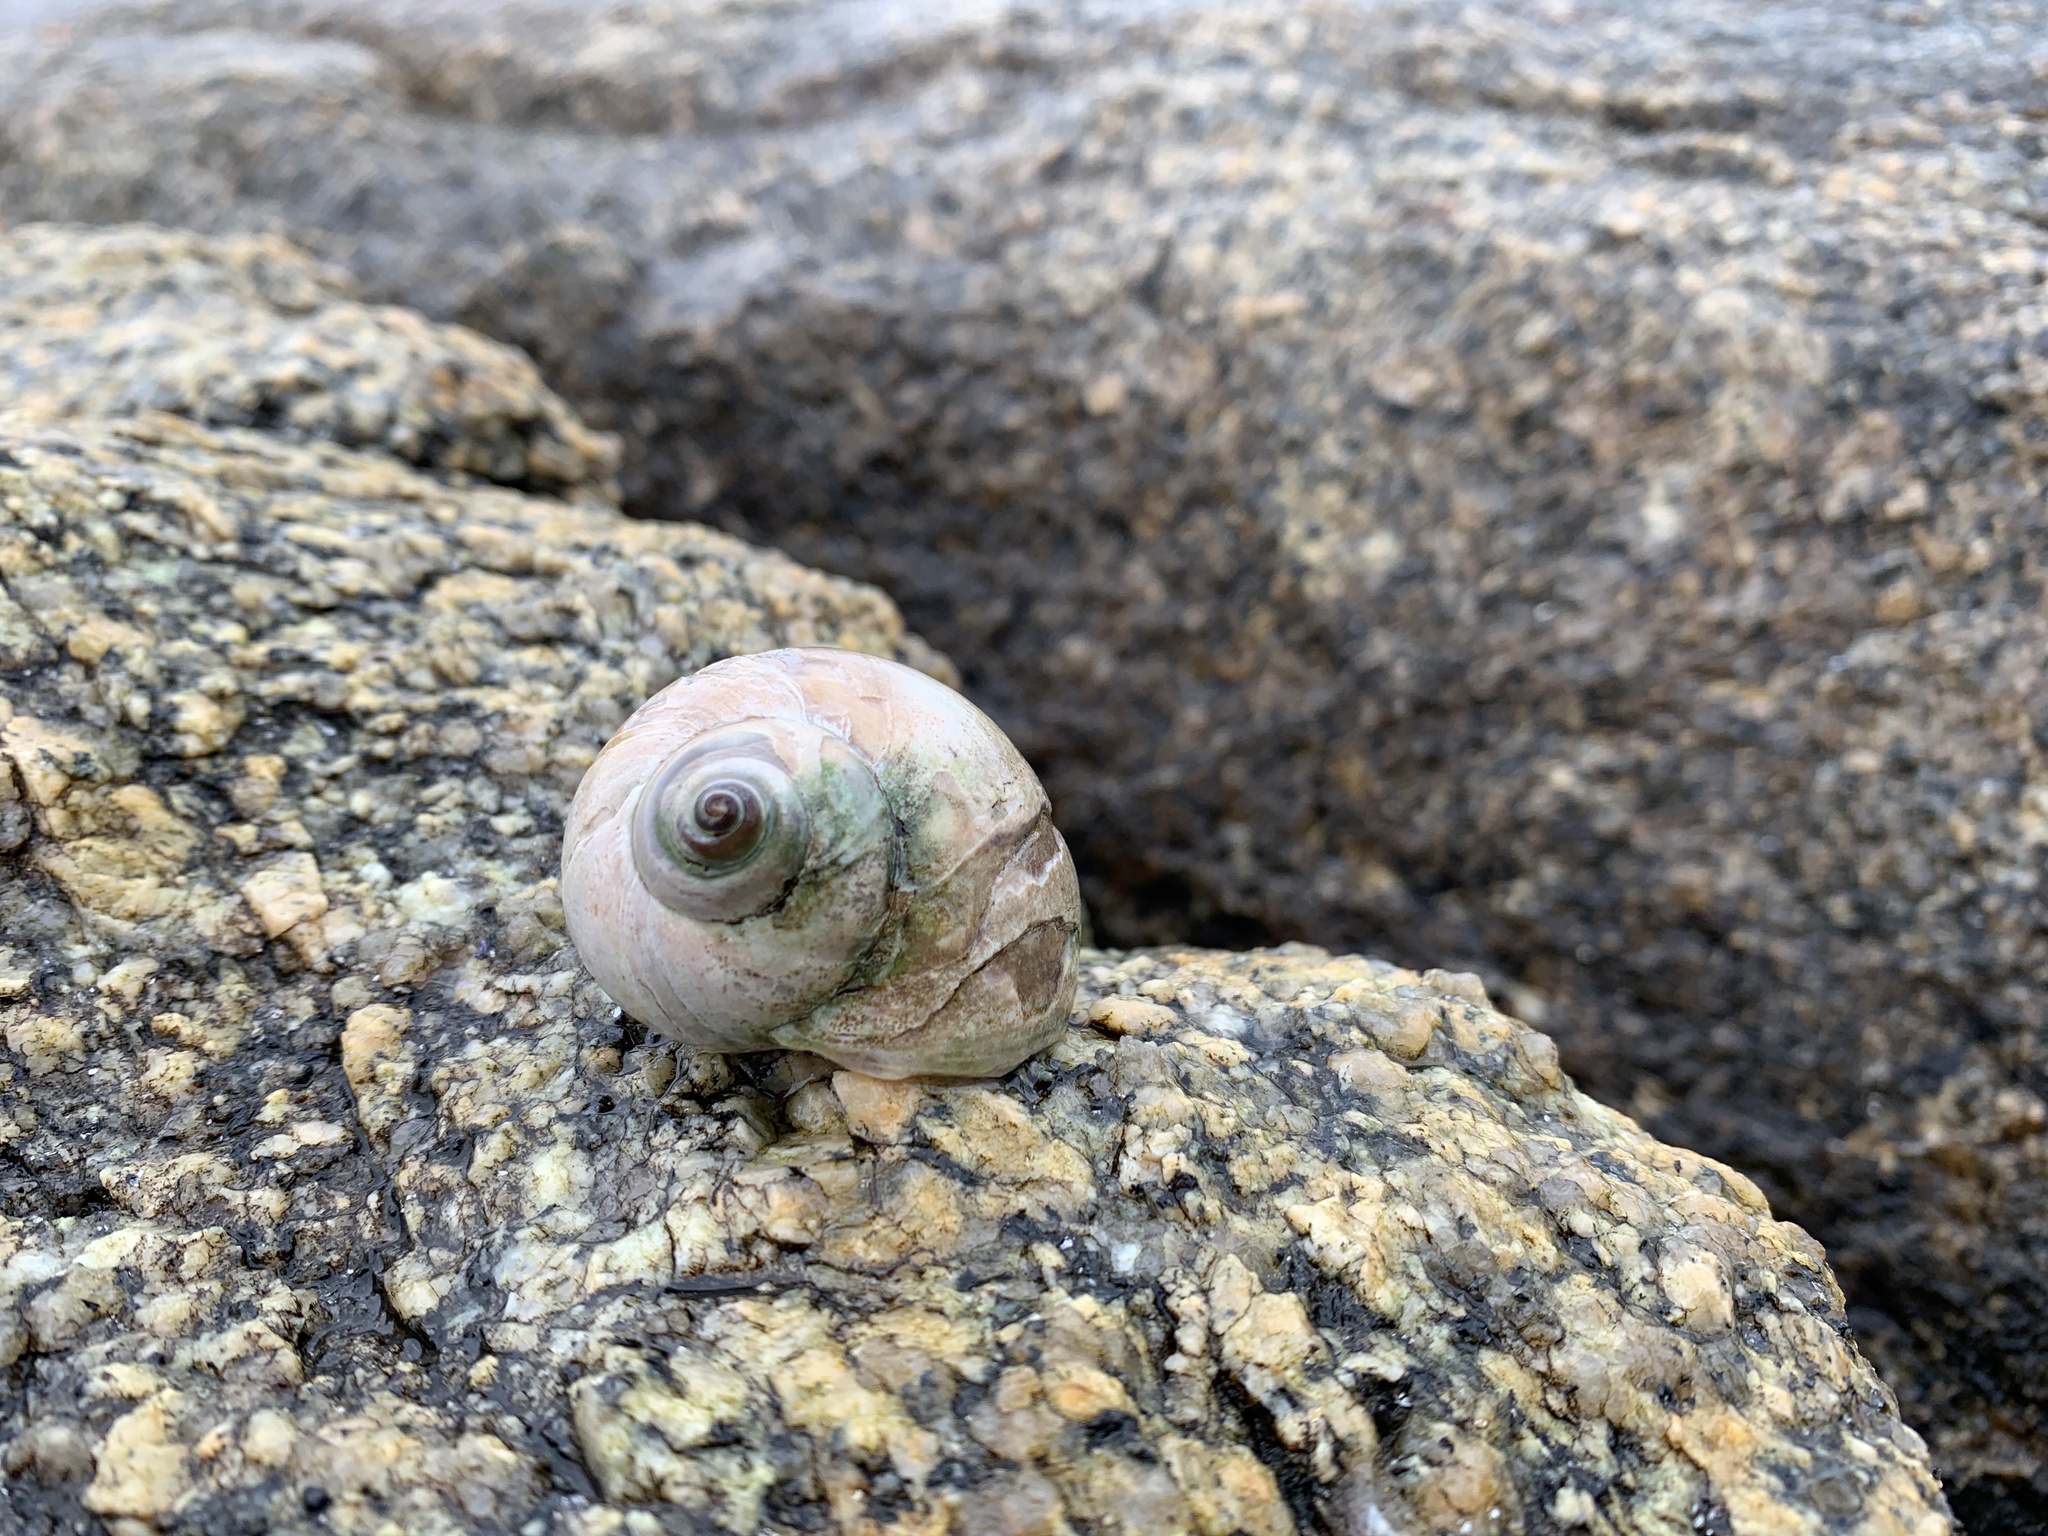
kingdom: Animalia
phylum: Mollusca
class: Gastropoda
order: Littorinimorpha
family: Naticidae
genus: Euspira
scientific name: Euspira heros
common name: Common northern moonsnail
